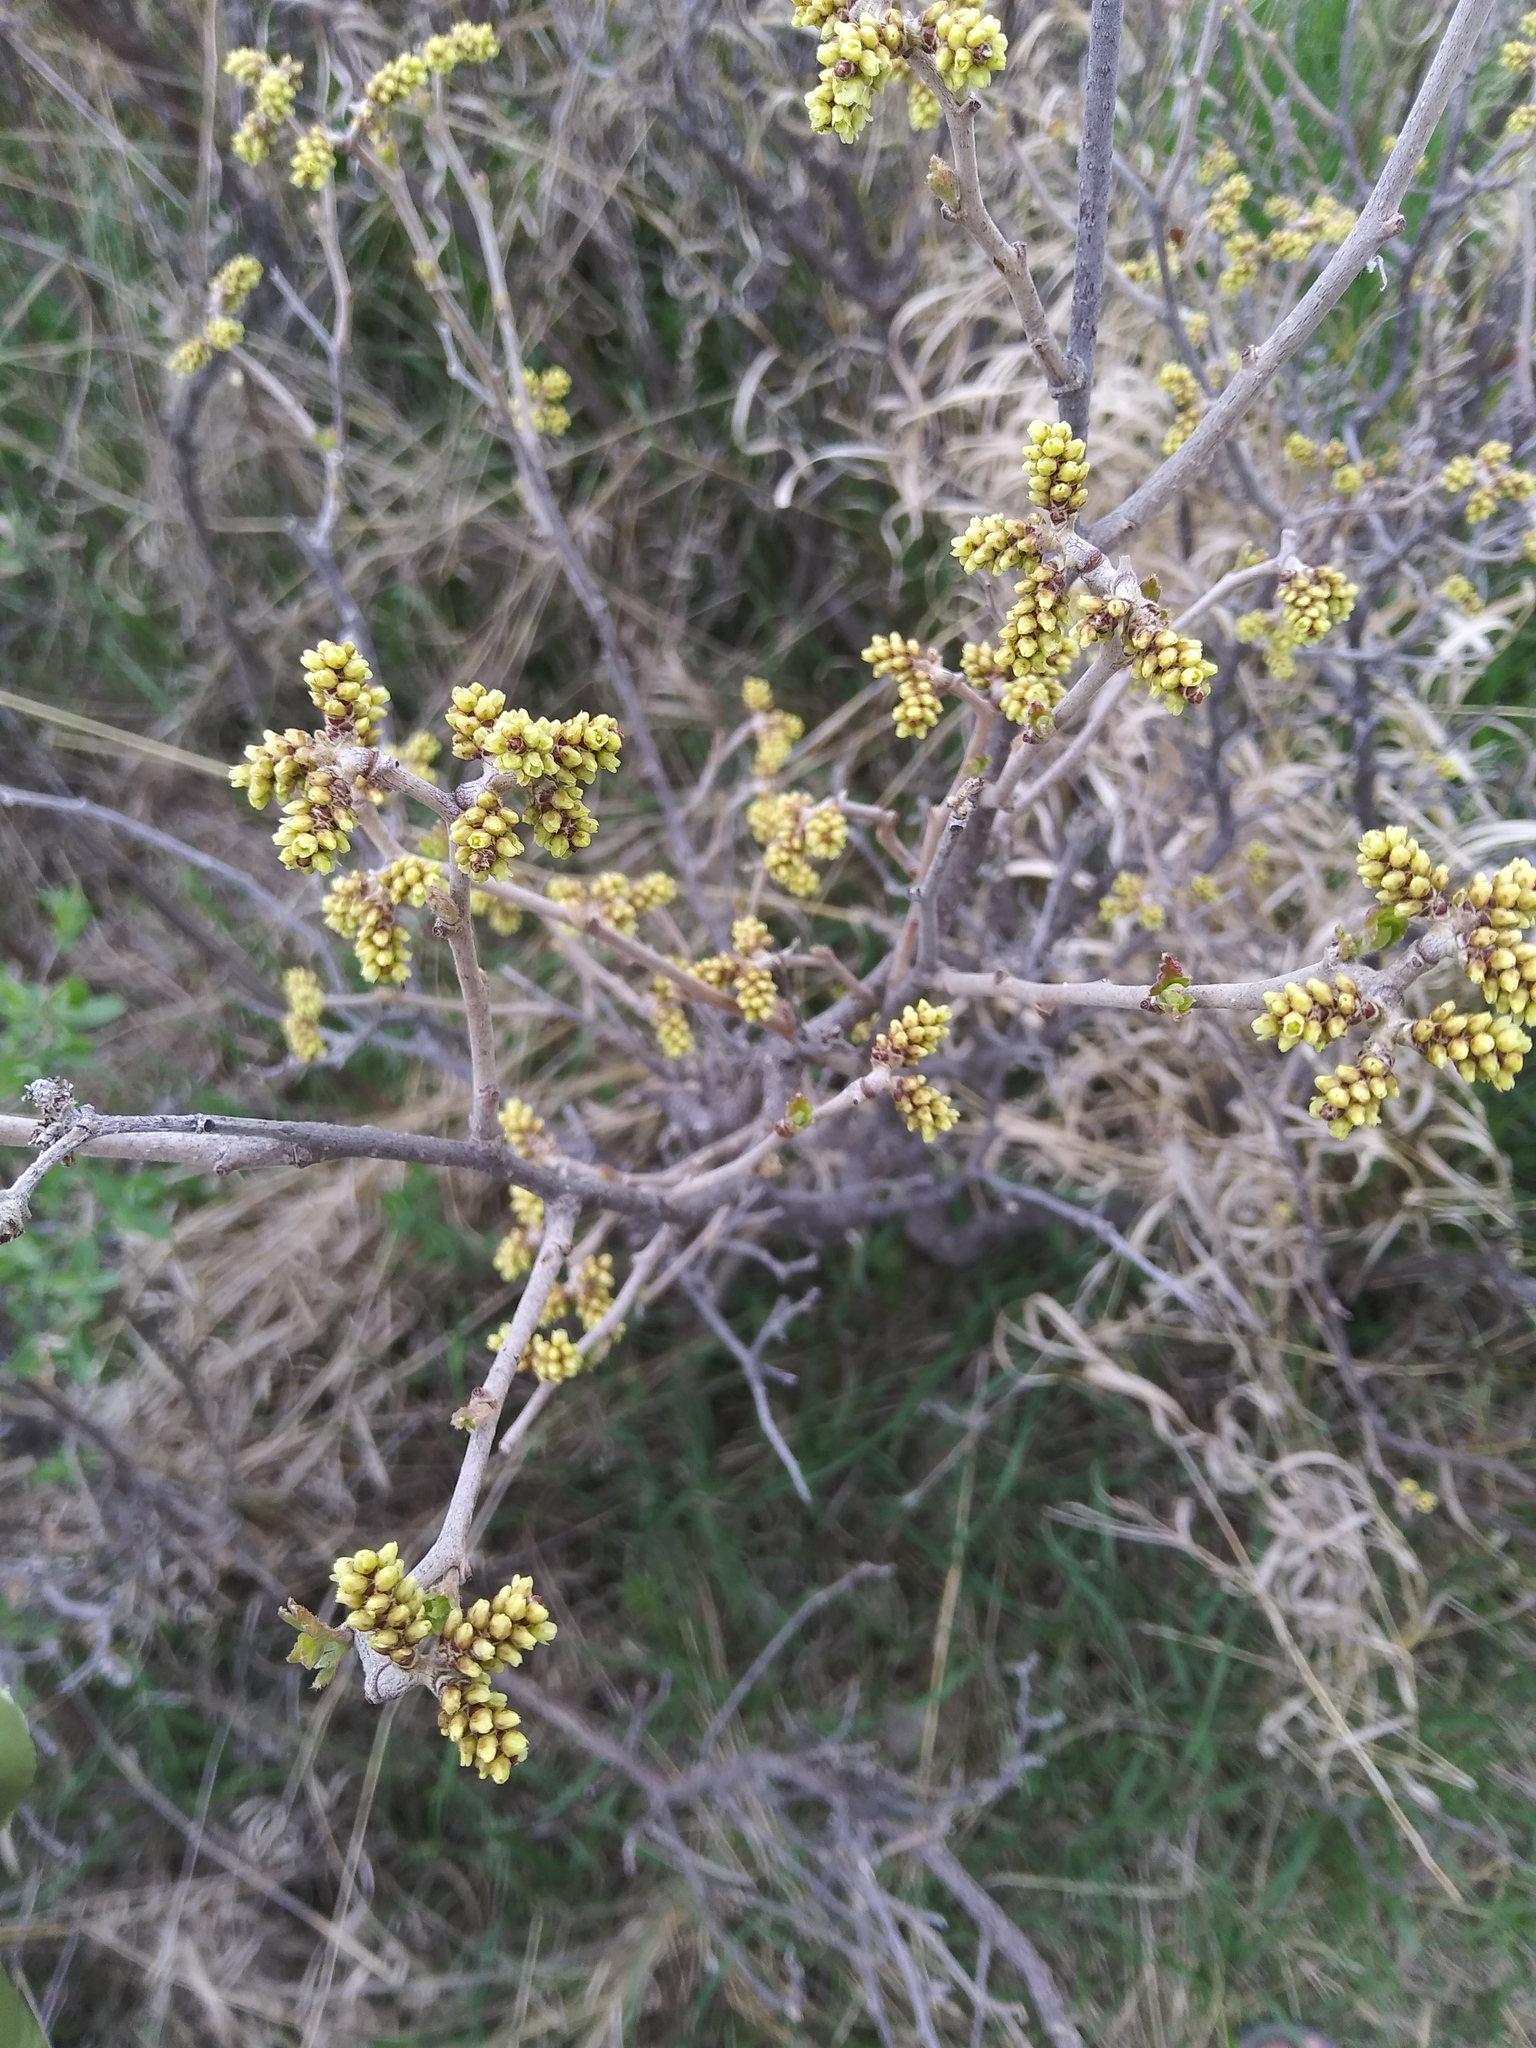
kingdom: Plantae
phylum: Tracheophyta
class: Magnoliopsida
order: Sapindales
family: Anacardiaceae
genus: Rhus
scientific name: Rhus trilobata
